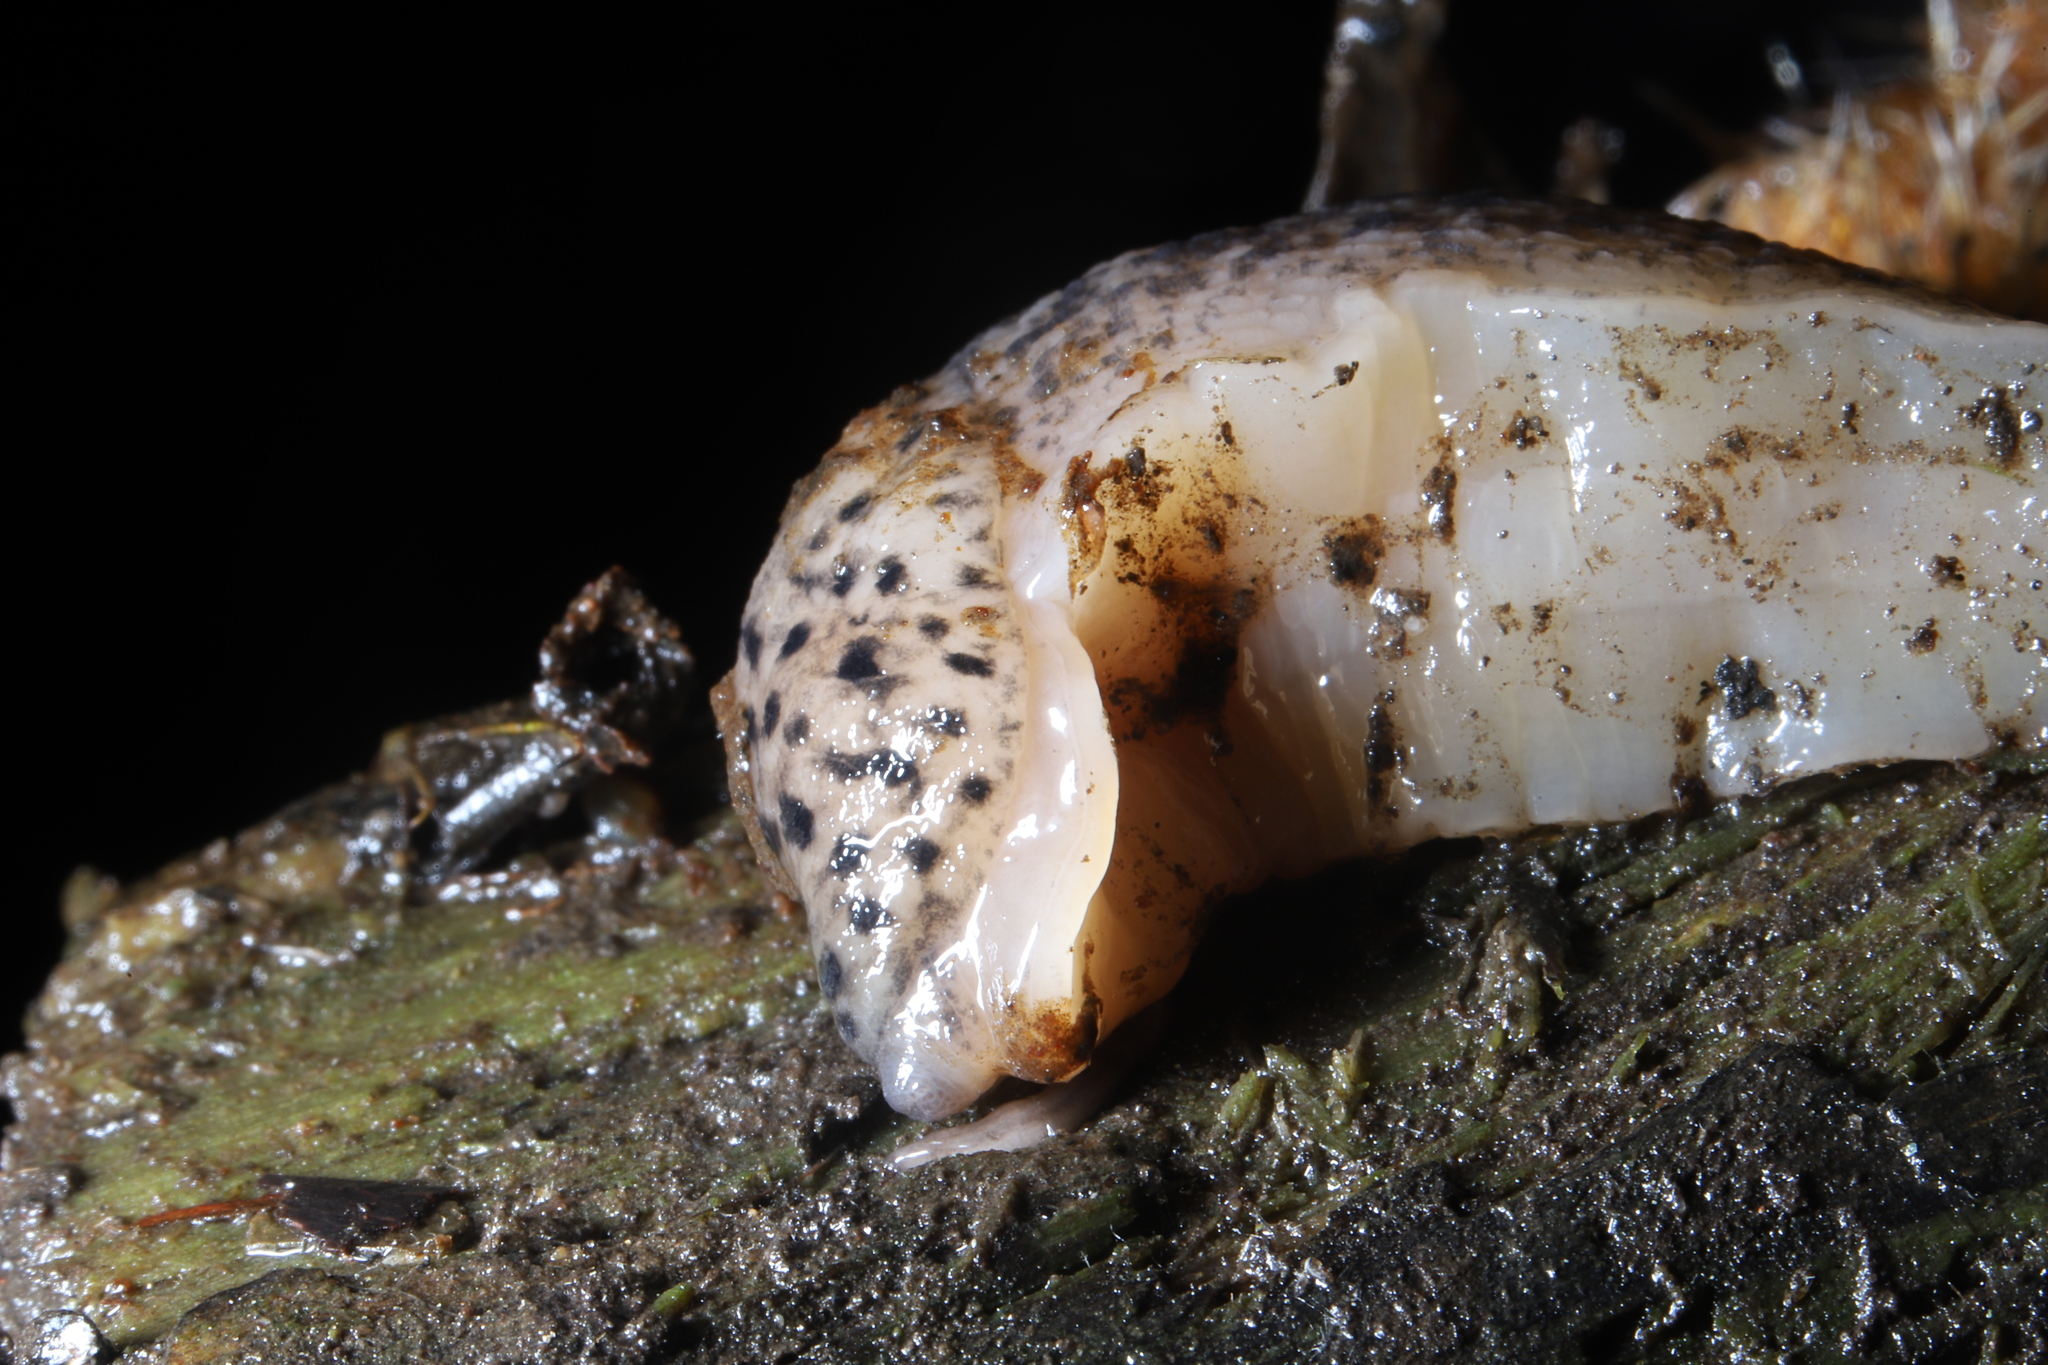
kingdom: Animalia
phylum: Mollusca
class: Gastropoda
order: Stylommatophora
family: Limacidae
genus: Limax
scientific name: Limax maximus
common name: Great grey slug
